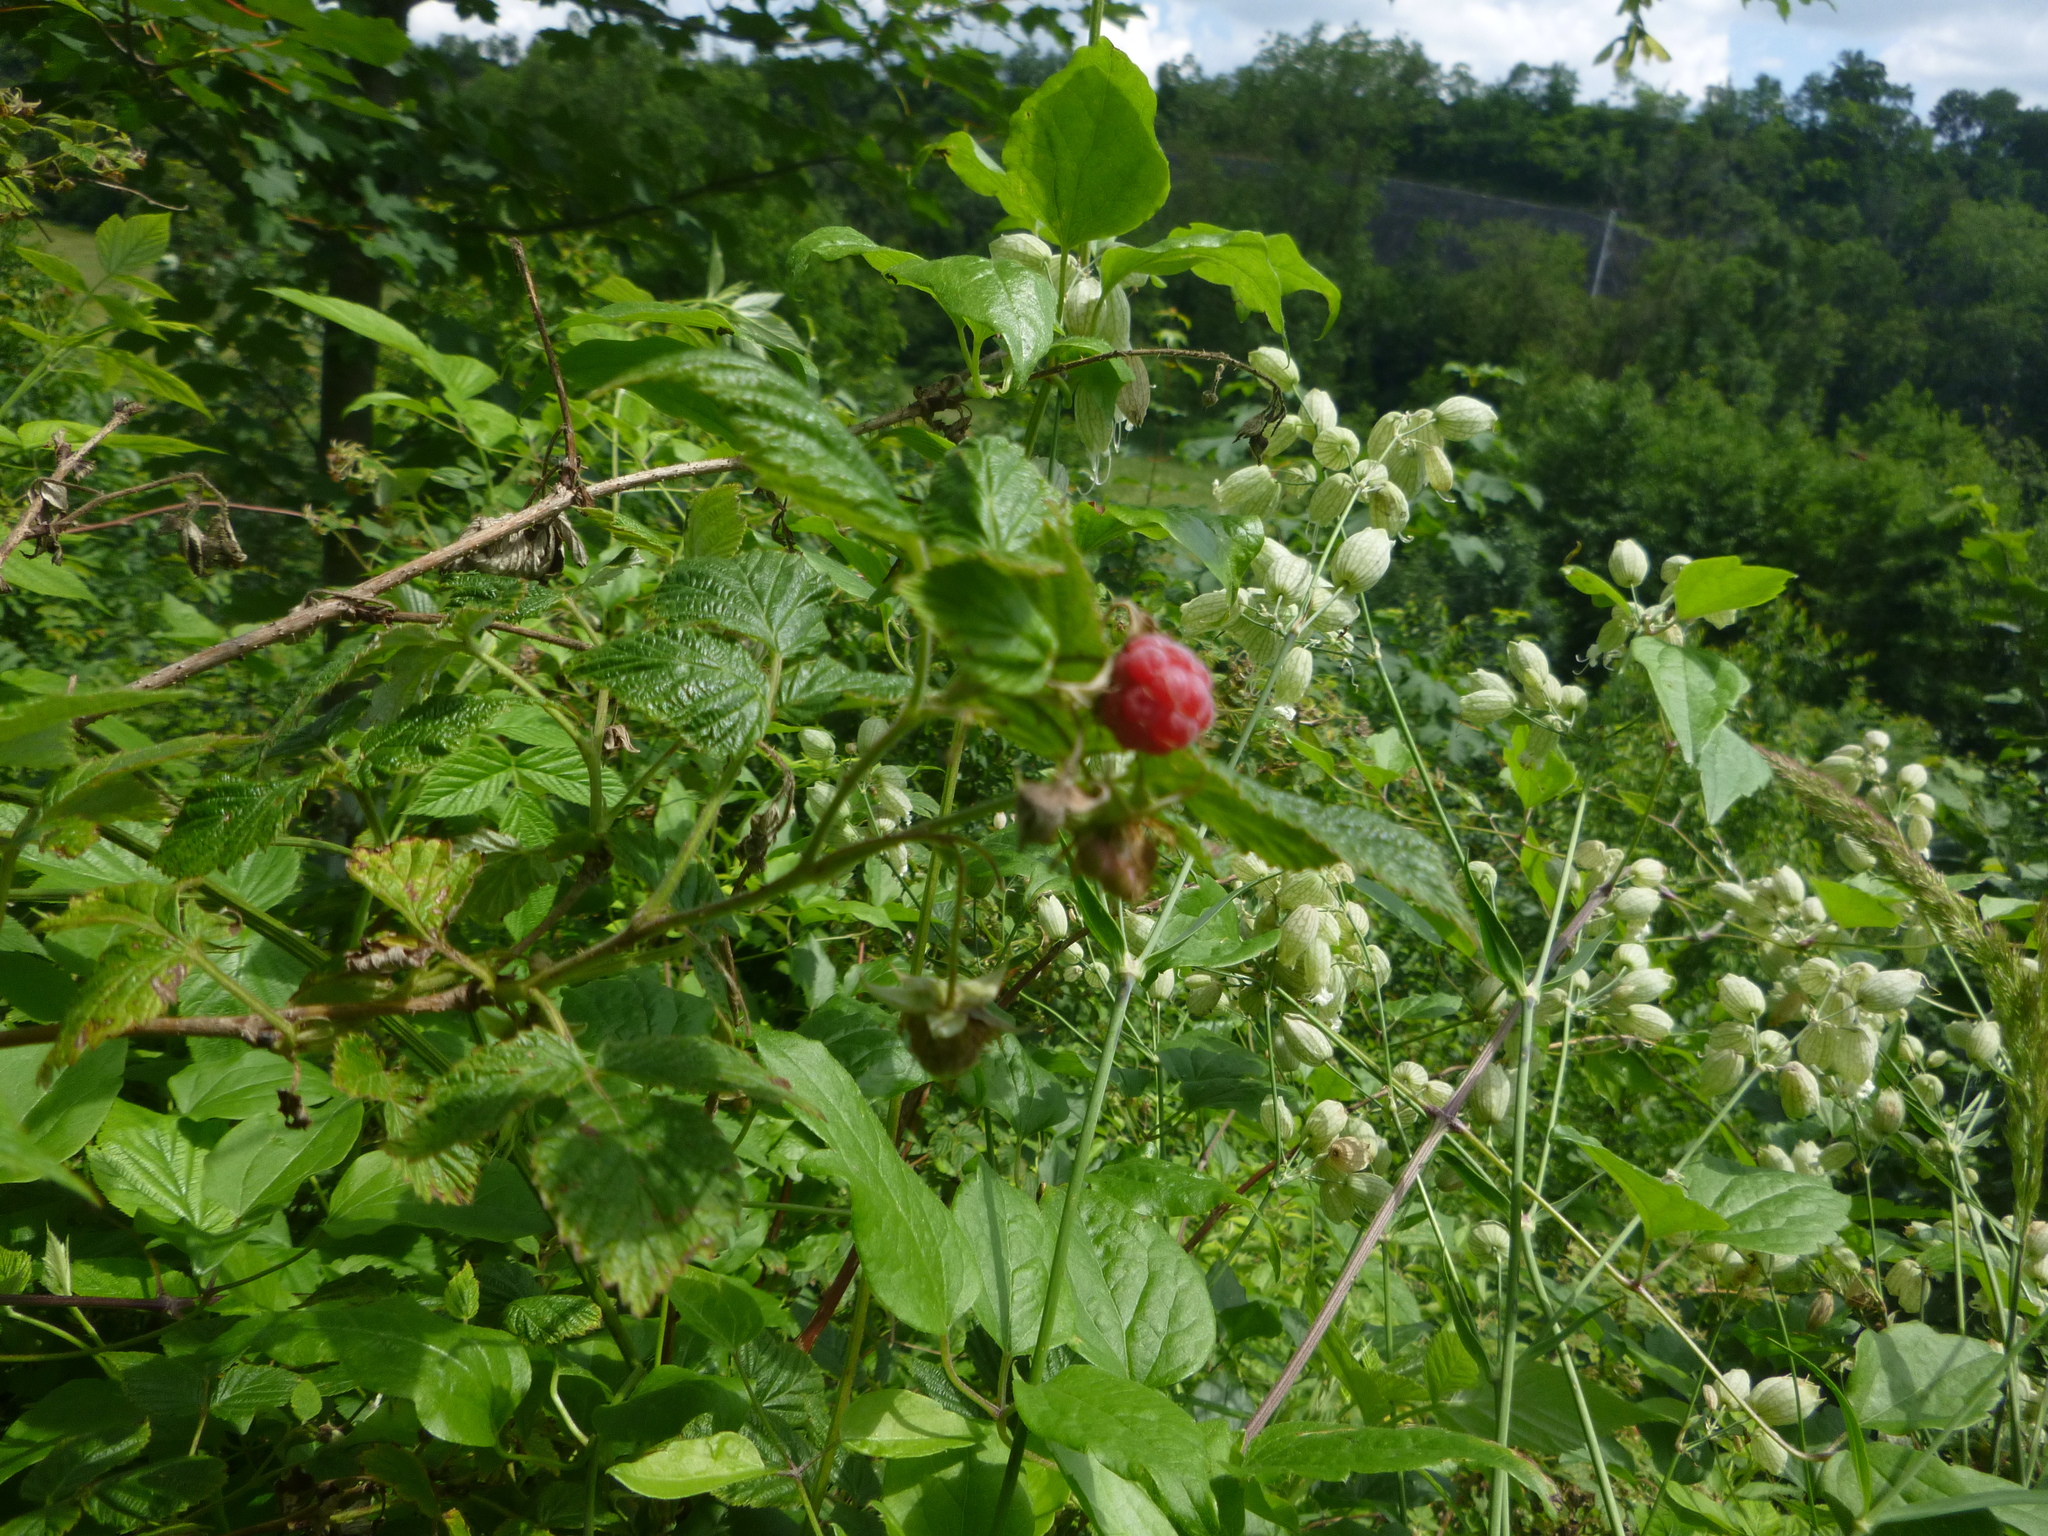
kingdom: Plantae
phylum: Tracheophyta
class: Magnoliopsida
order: Rosales
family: Rosaceae
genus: Rubus
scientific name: Rubus idaeus
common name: Raspberry
